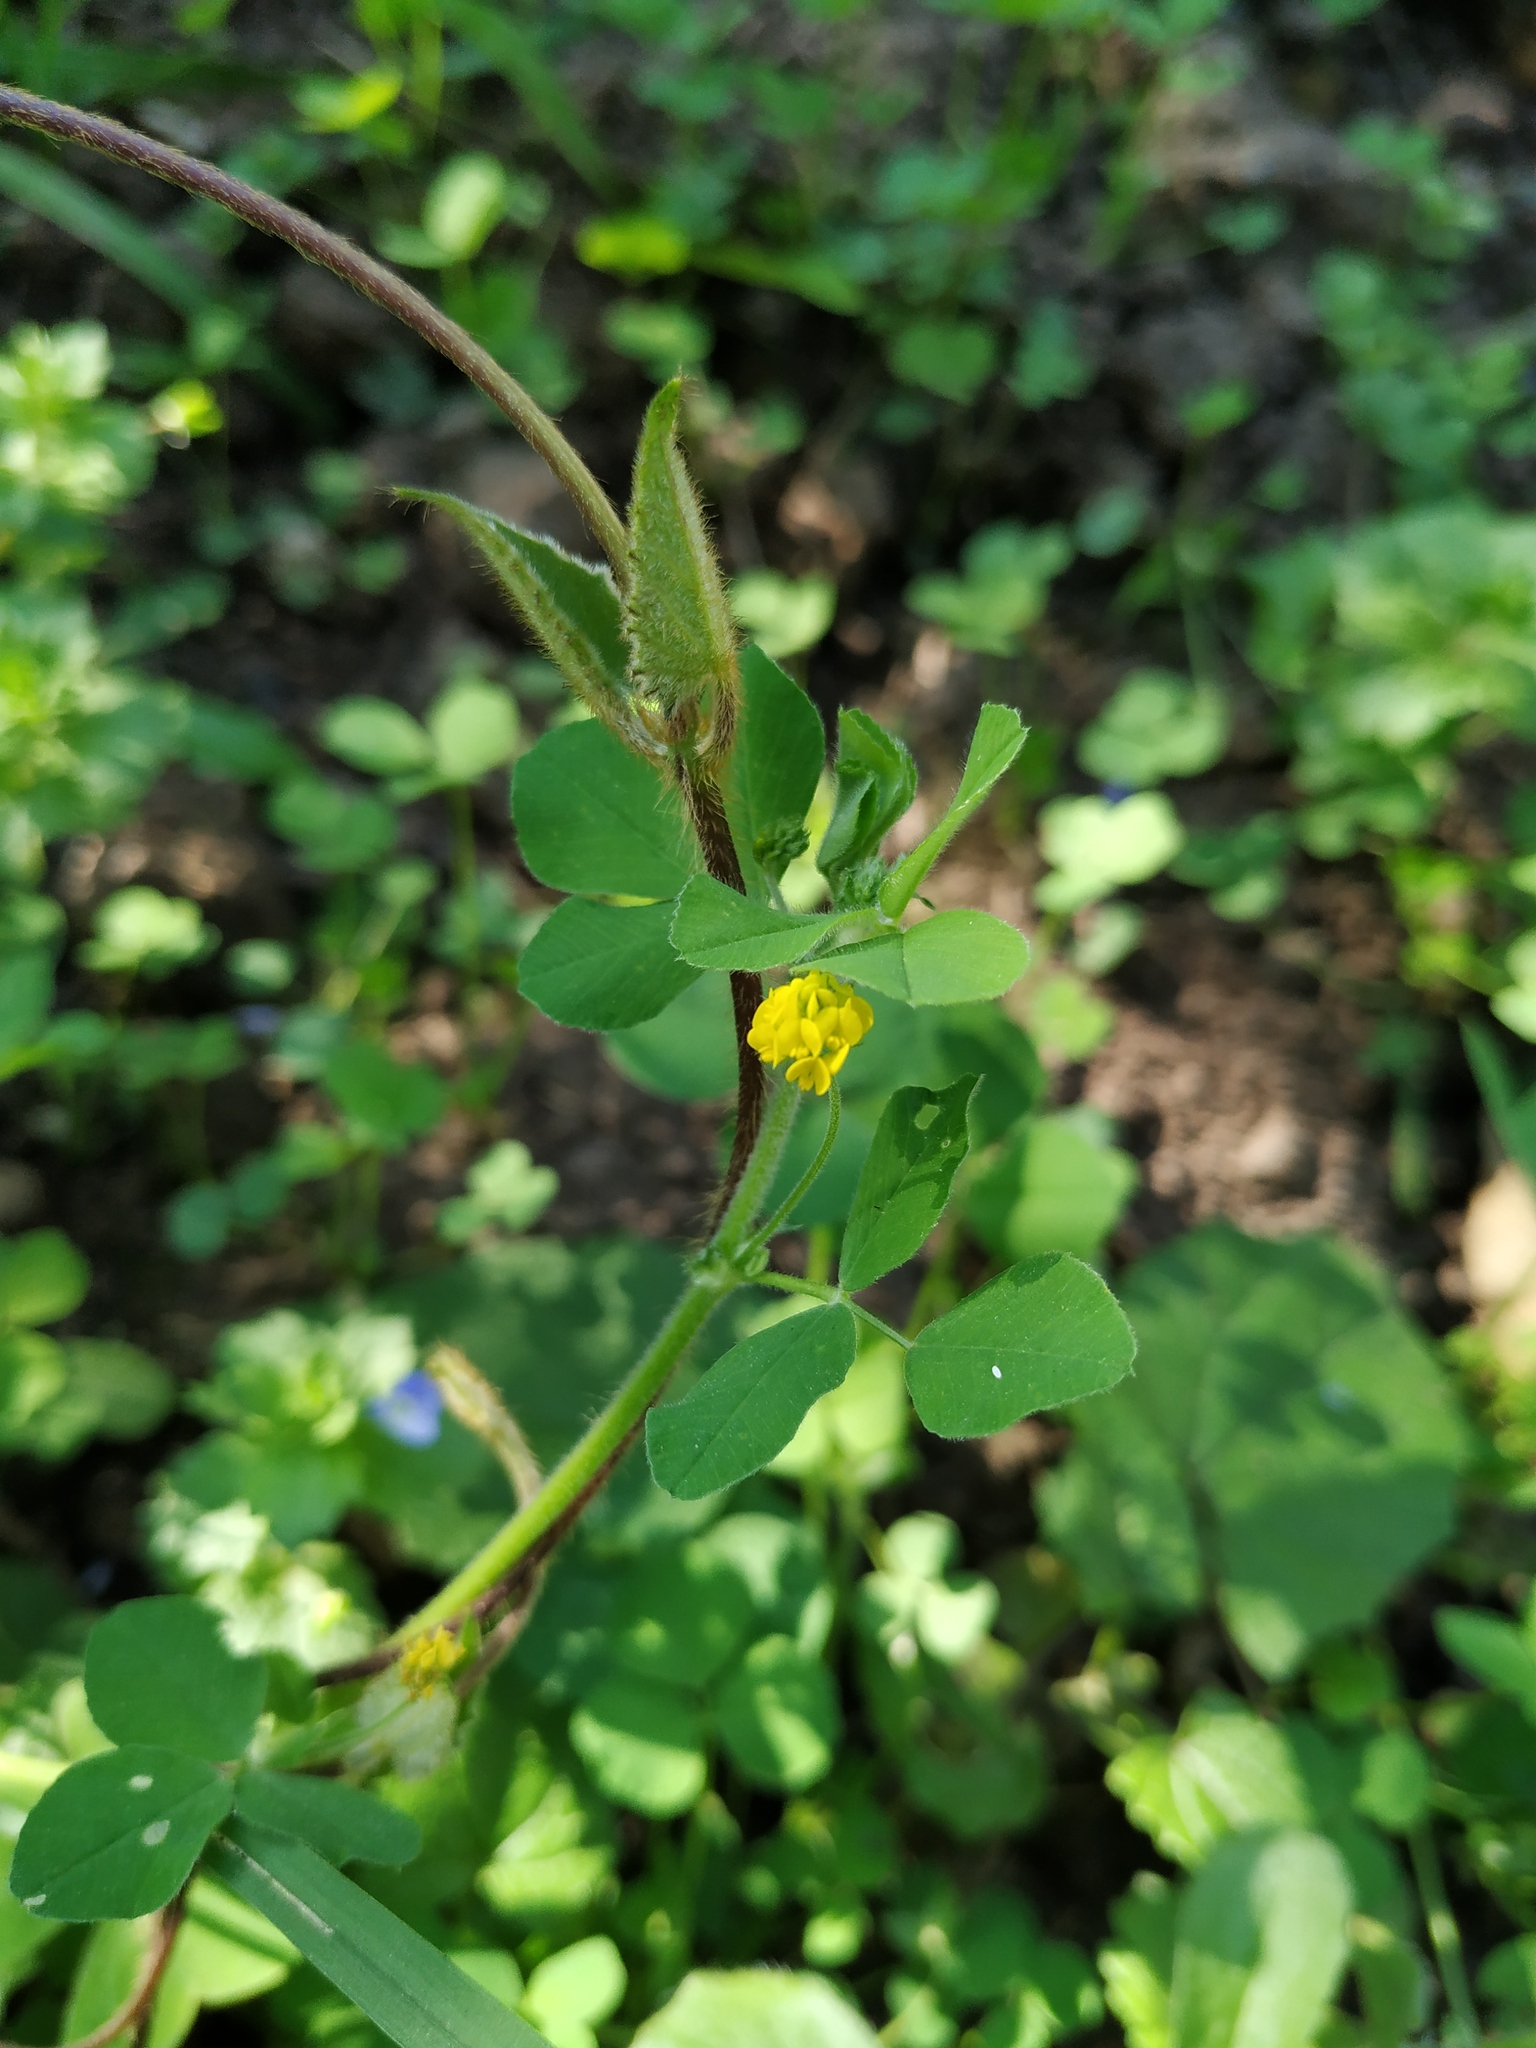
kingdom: Plantae
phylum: Tracheophyta
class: Magnoliopsida
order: Fabales
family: Fabaceae
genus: Medicago
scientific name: Medicago lupulina
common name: Black medick
